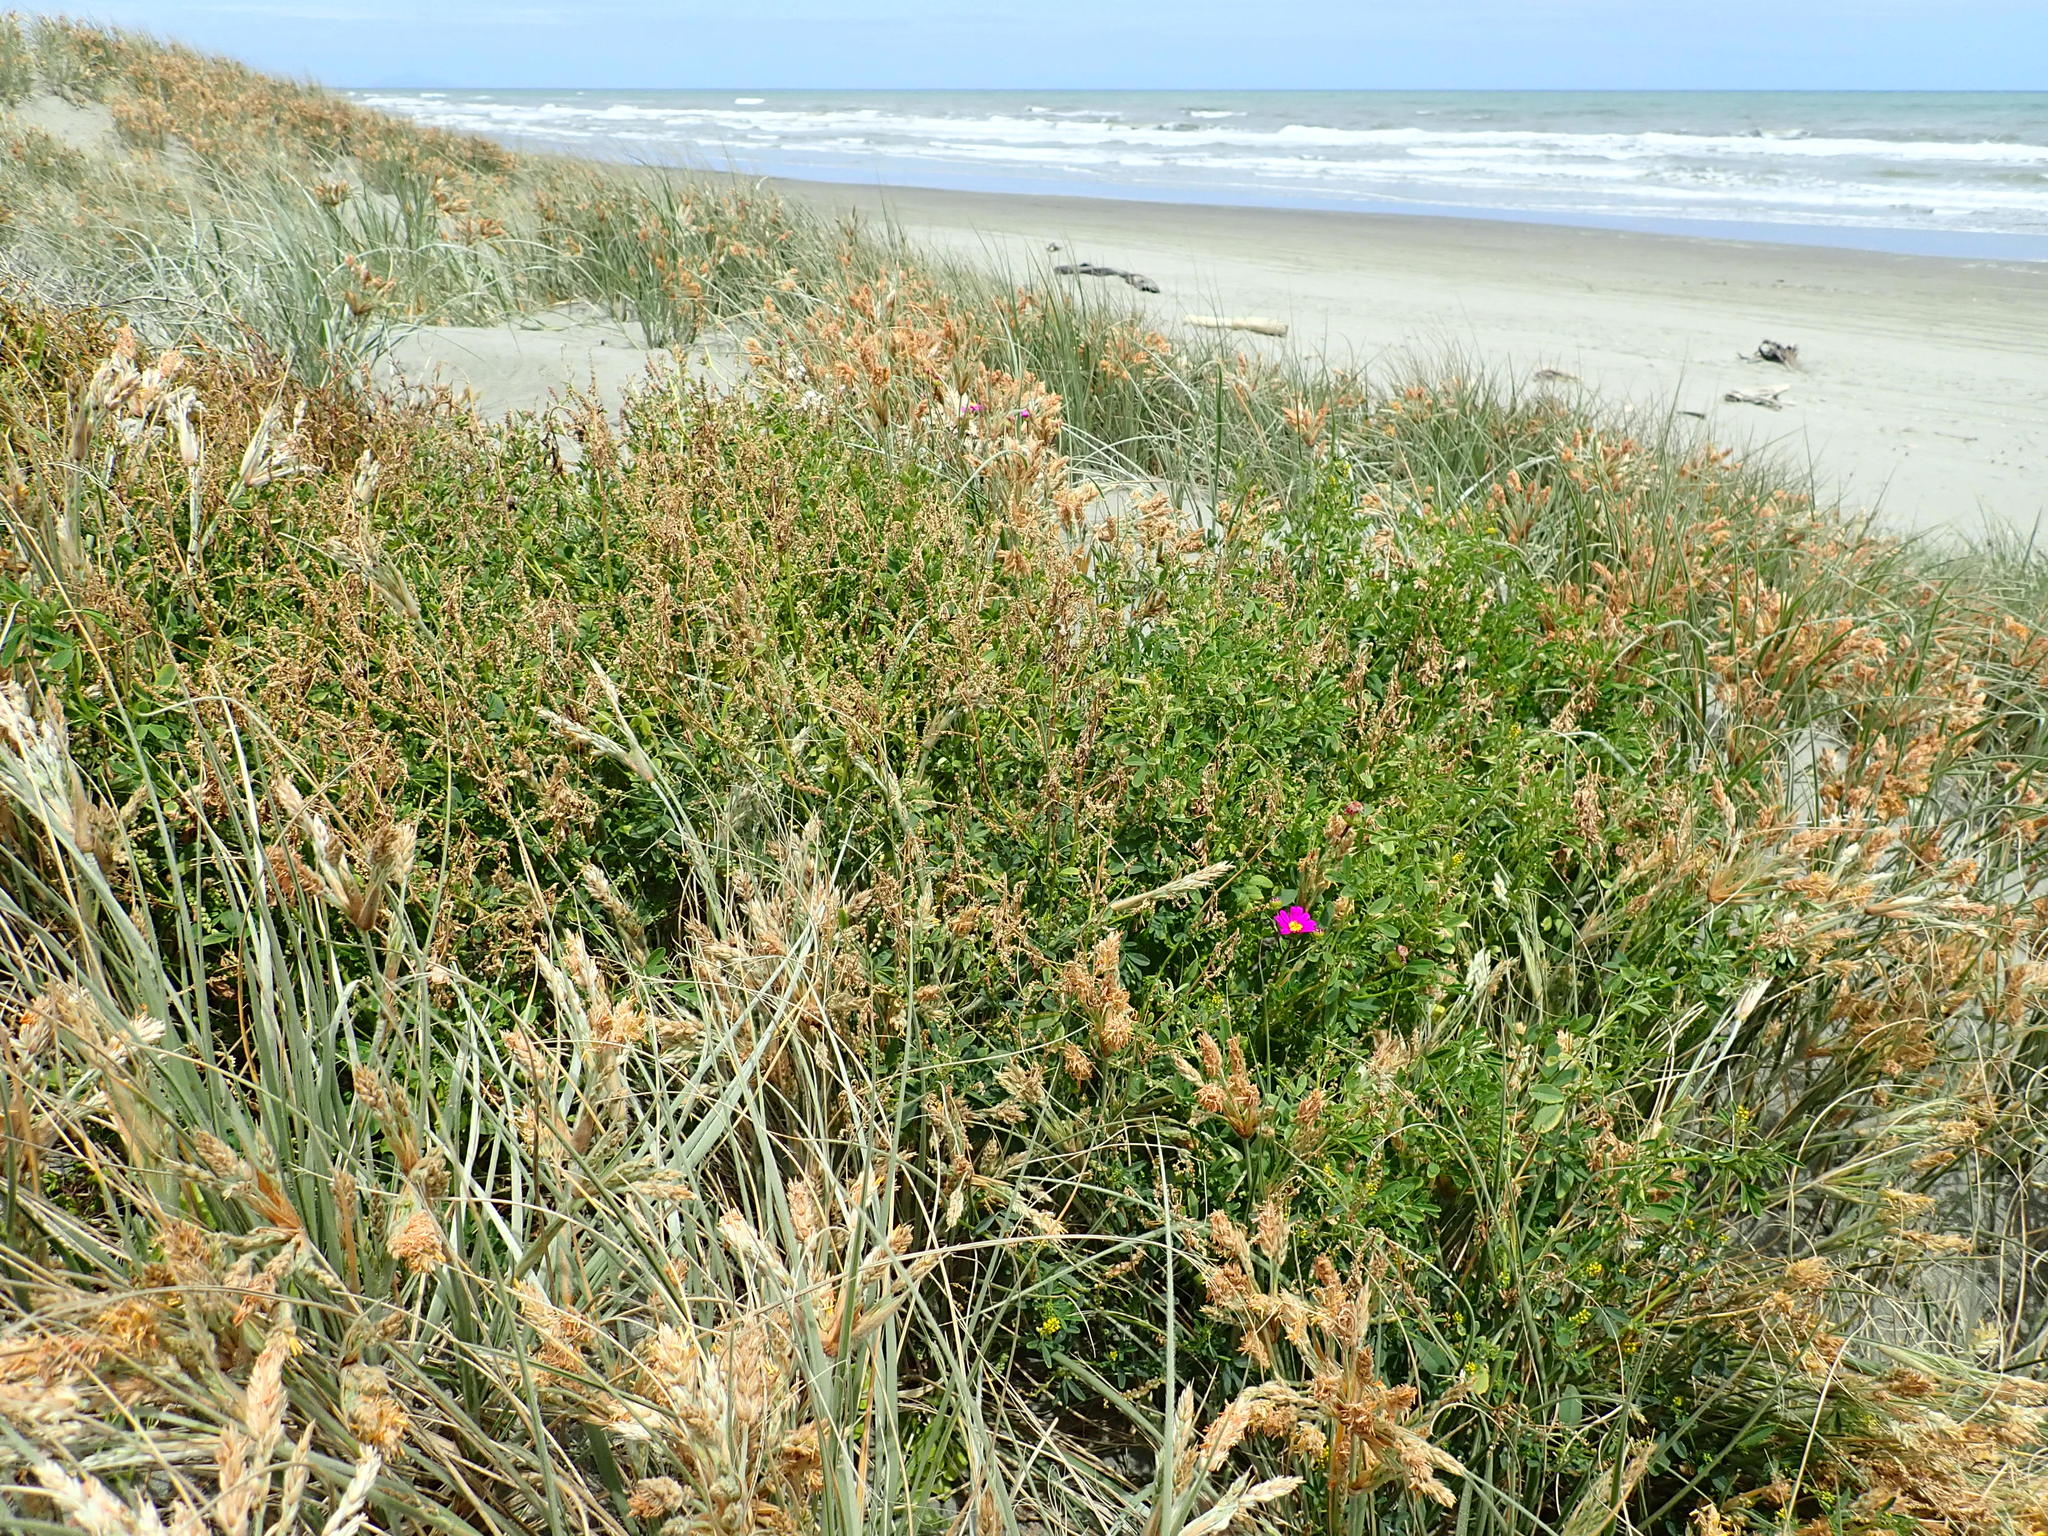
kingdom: Plantae
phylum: Tracheophyta
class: Magnoliopsida
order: Fabales
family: Fabaceae
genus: Melilotus
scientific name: Melilotus indicus
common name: Small melilot
